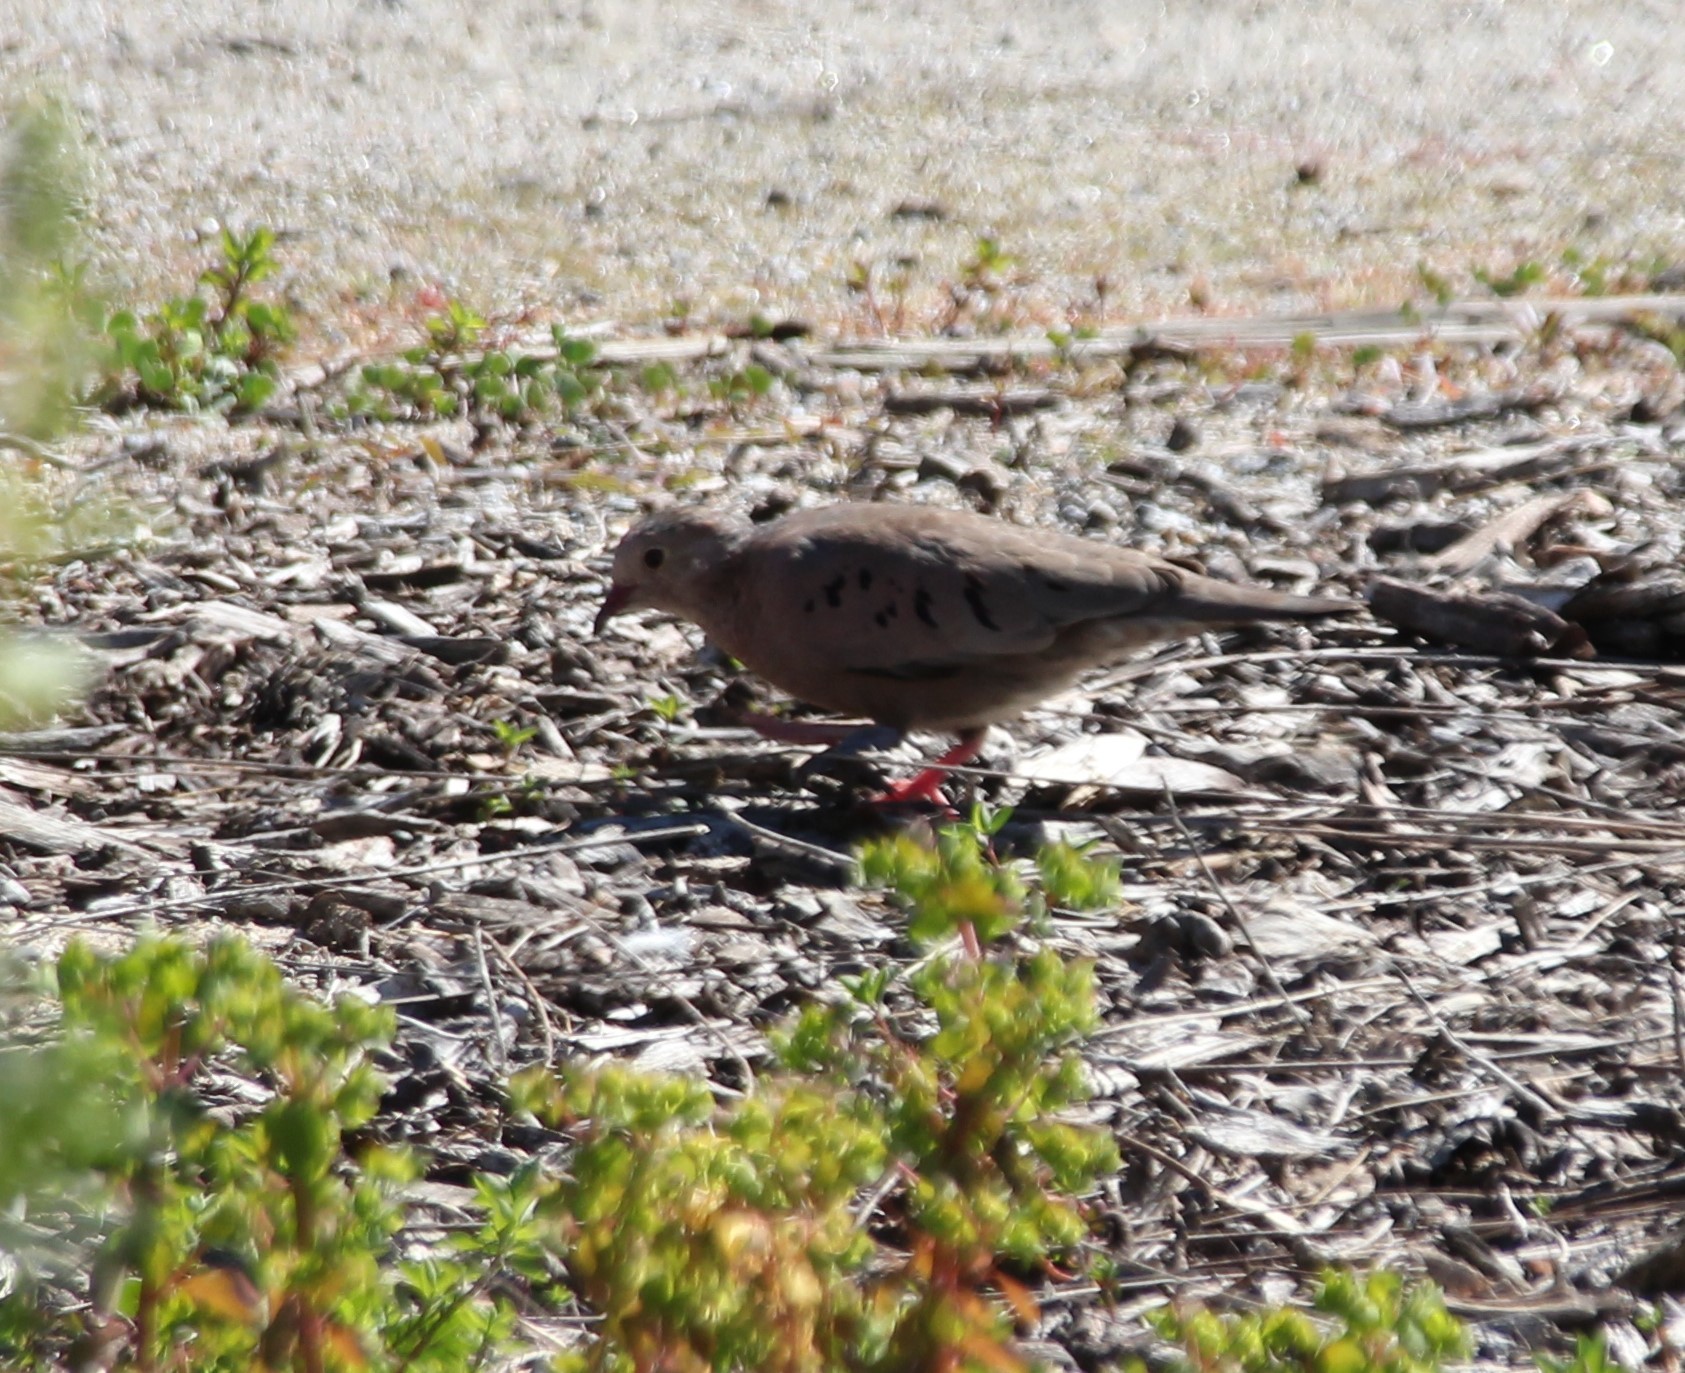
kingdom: Animalia
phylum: Chordata
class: Aves
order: Columbiformes
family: Columbidae
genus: Columbina
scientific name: Columbina passerina
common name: Common ground-dove
